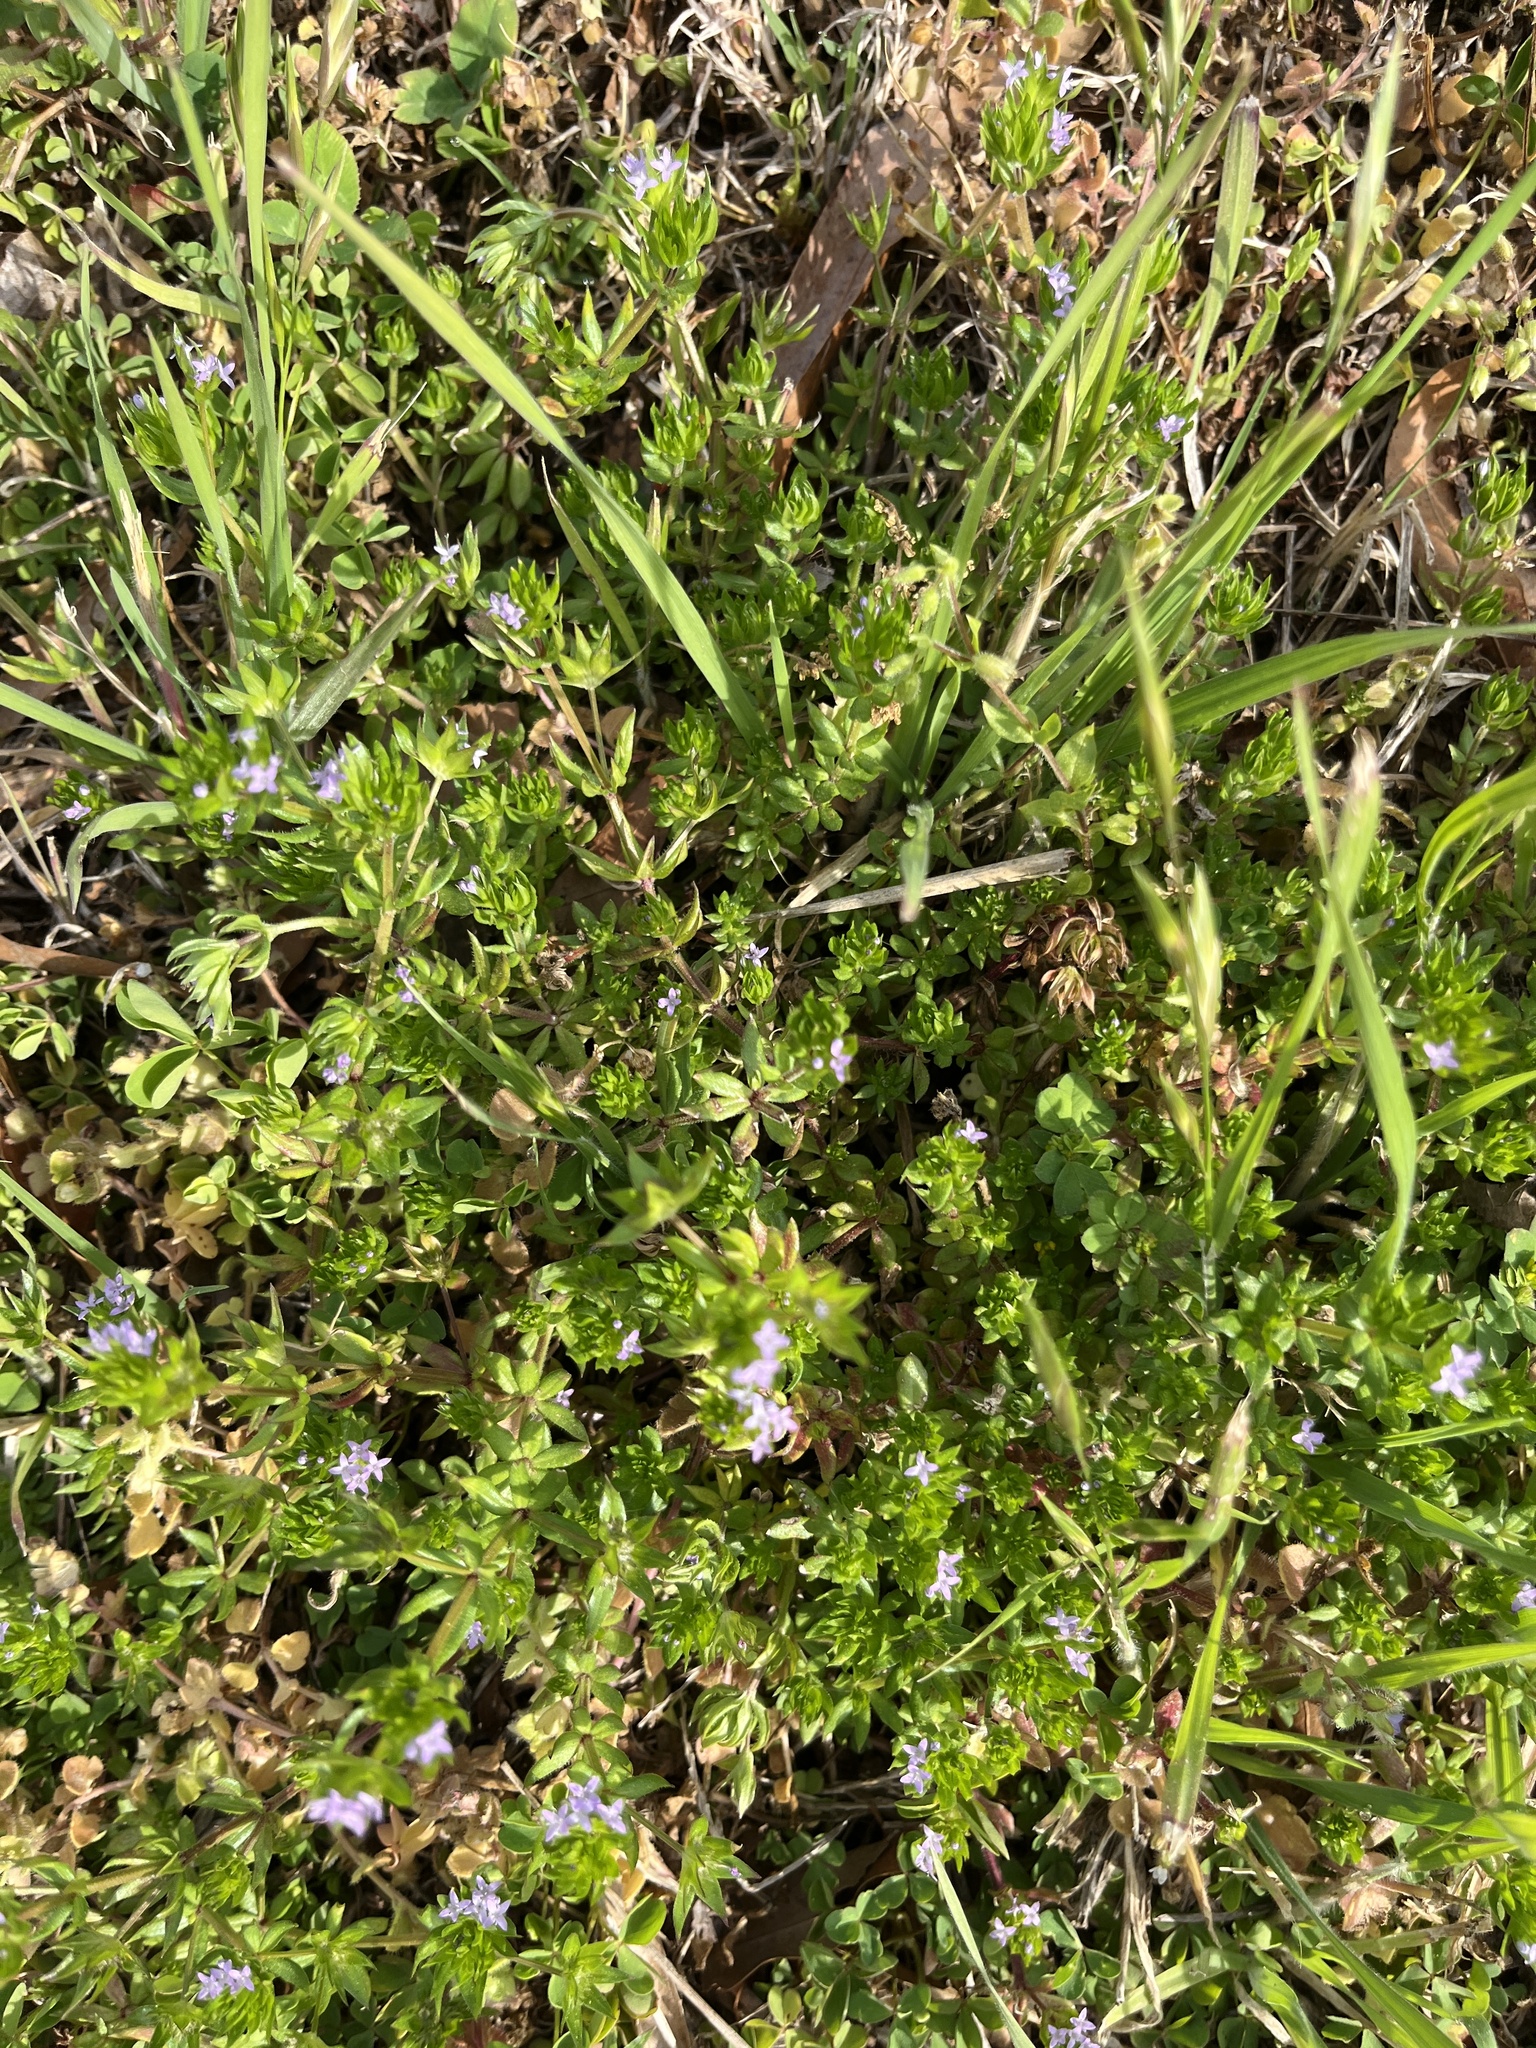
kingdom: Plantae
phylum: Tracheophyta
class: Magnoliopsida
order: Gentianales
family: Rubiaceae
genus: Sherardia
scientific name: Sherardia arvensis
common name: Field madder
